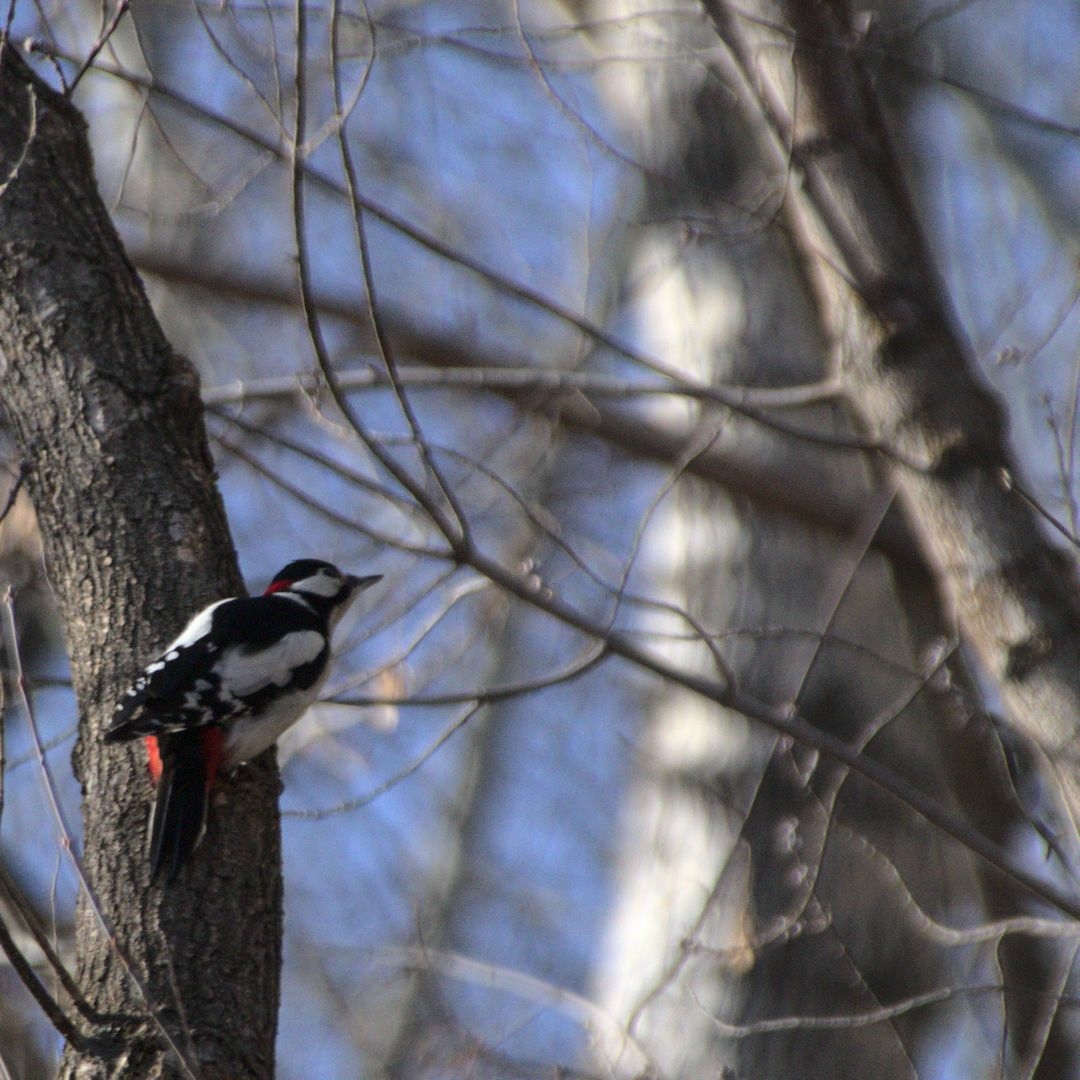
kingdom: Animalia
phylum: Chordata
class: Aves
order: Piciformes
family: Picidae
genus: Dendrocopos
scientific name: Dendrocopos major
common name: Great spotted woodpecker
